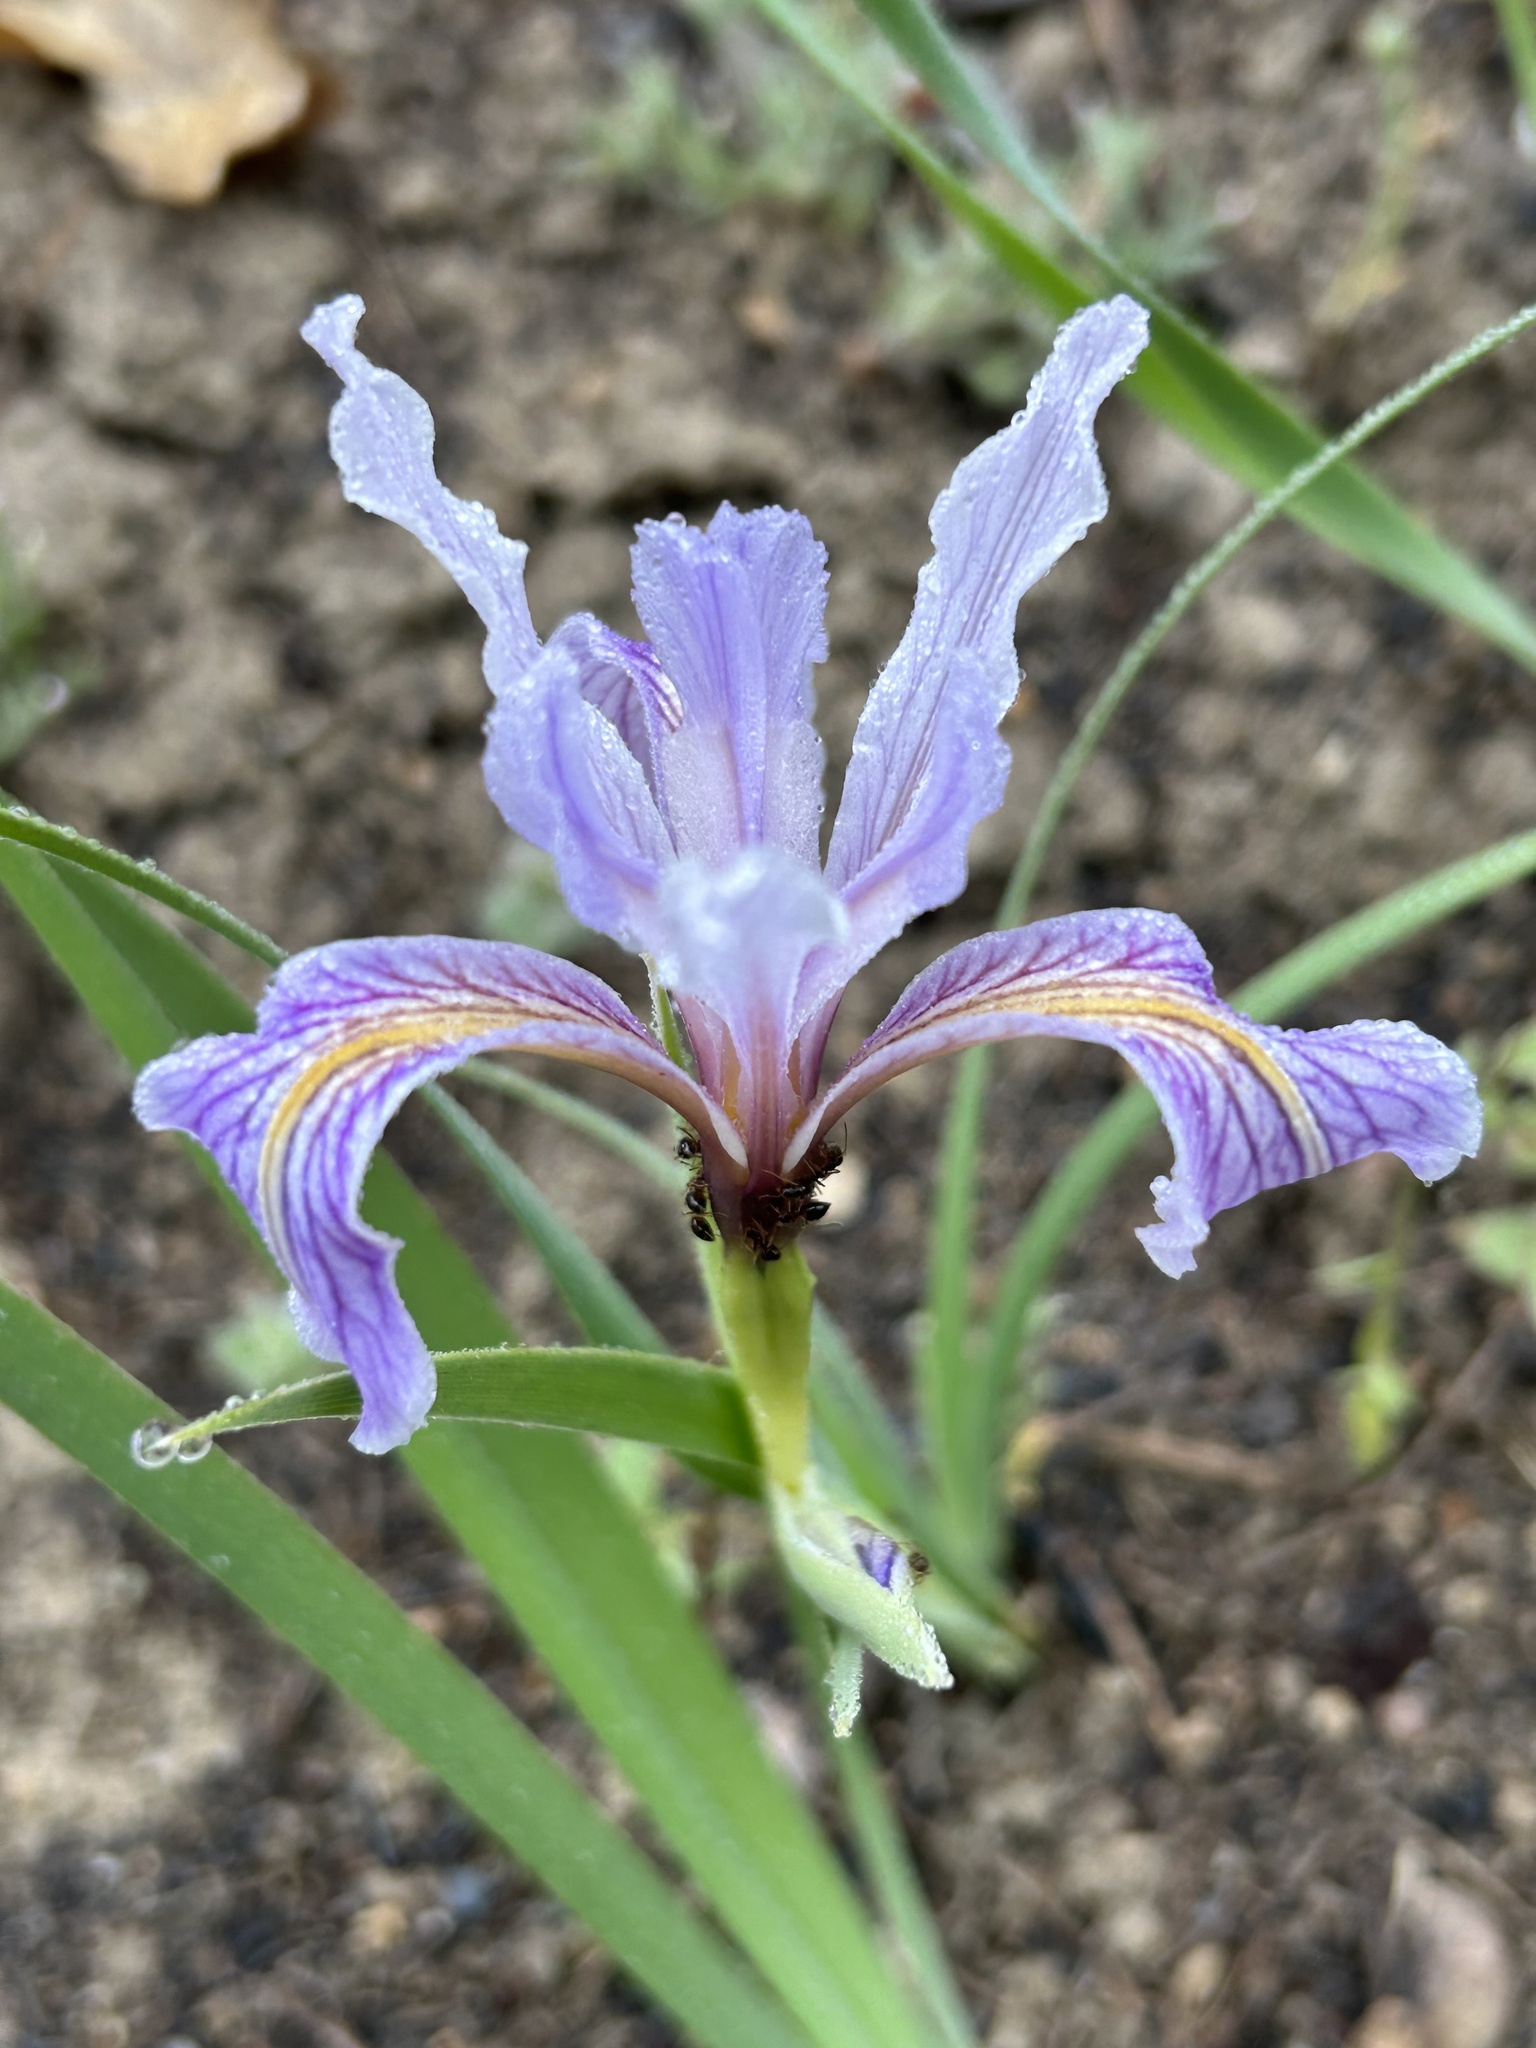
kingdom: Plantae
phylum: Tracheophyta
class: Liliopsida
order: Asparagales
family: Iridaceae
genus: Iris
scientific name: Iris hartwegii
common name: Sierra iris
